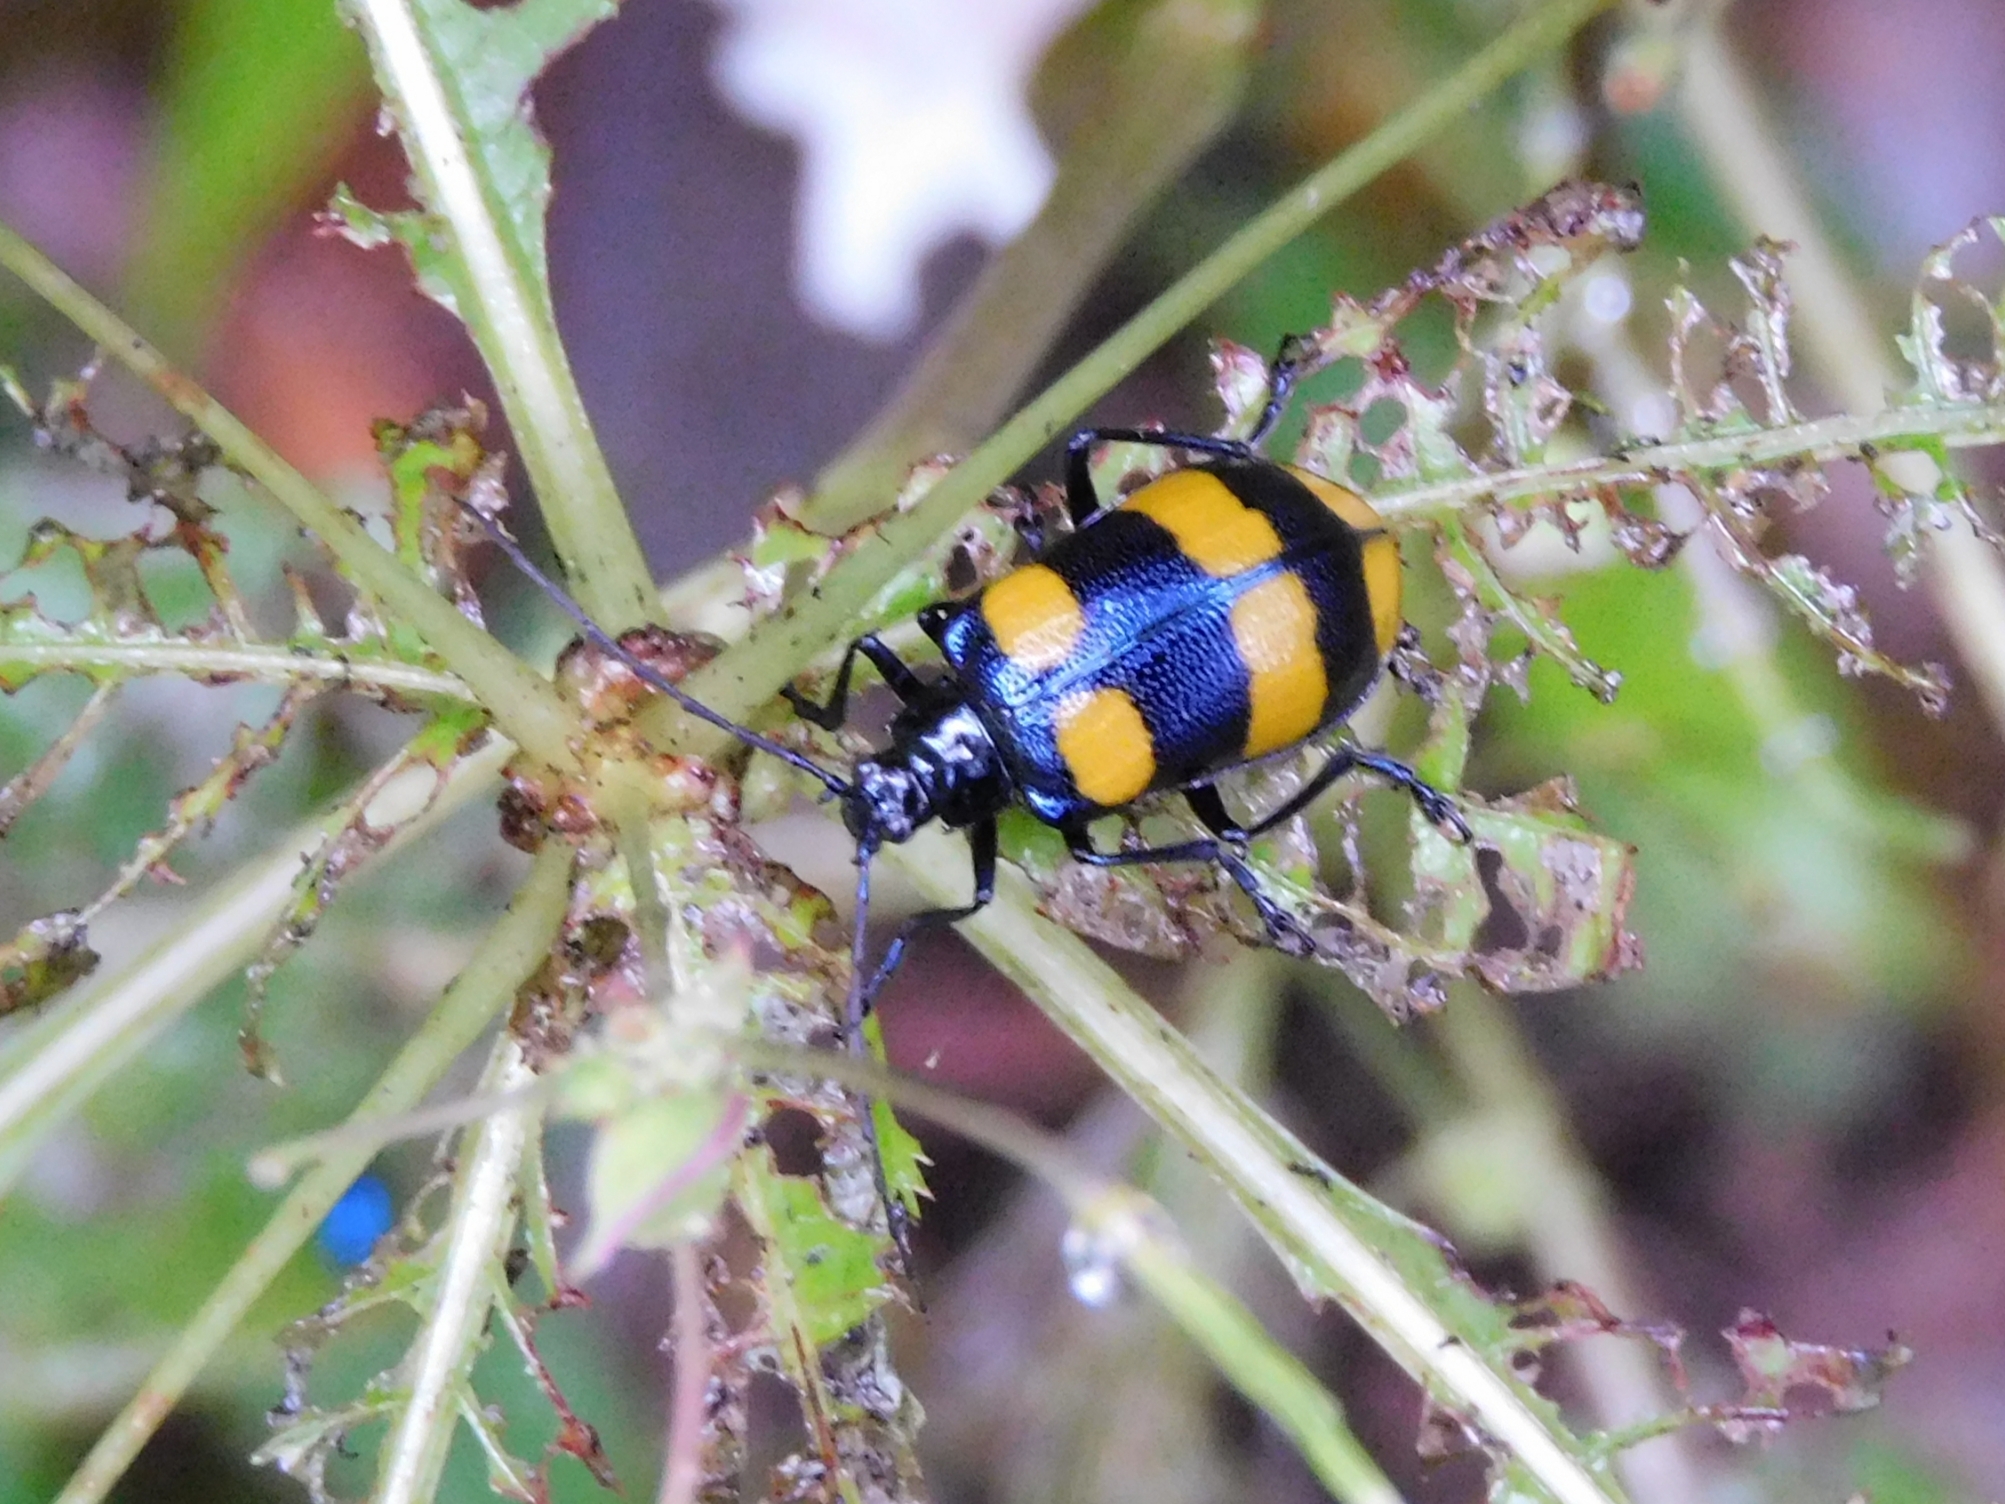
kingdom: Animalia
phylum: Arthropoda
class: Insecta
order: Coleoptera
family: Chrysomelidae
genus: Meristata
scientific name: Meristata
